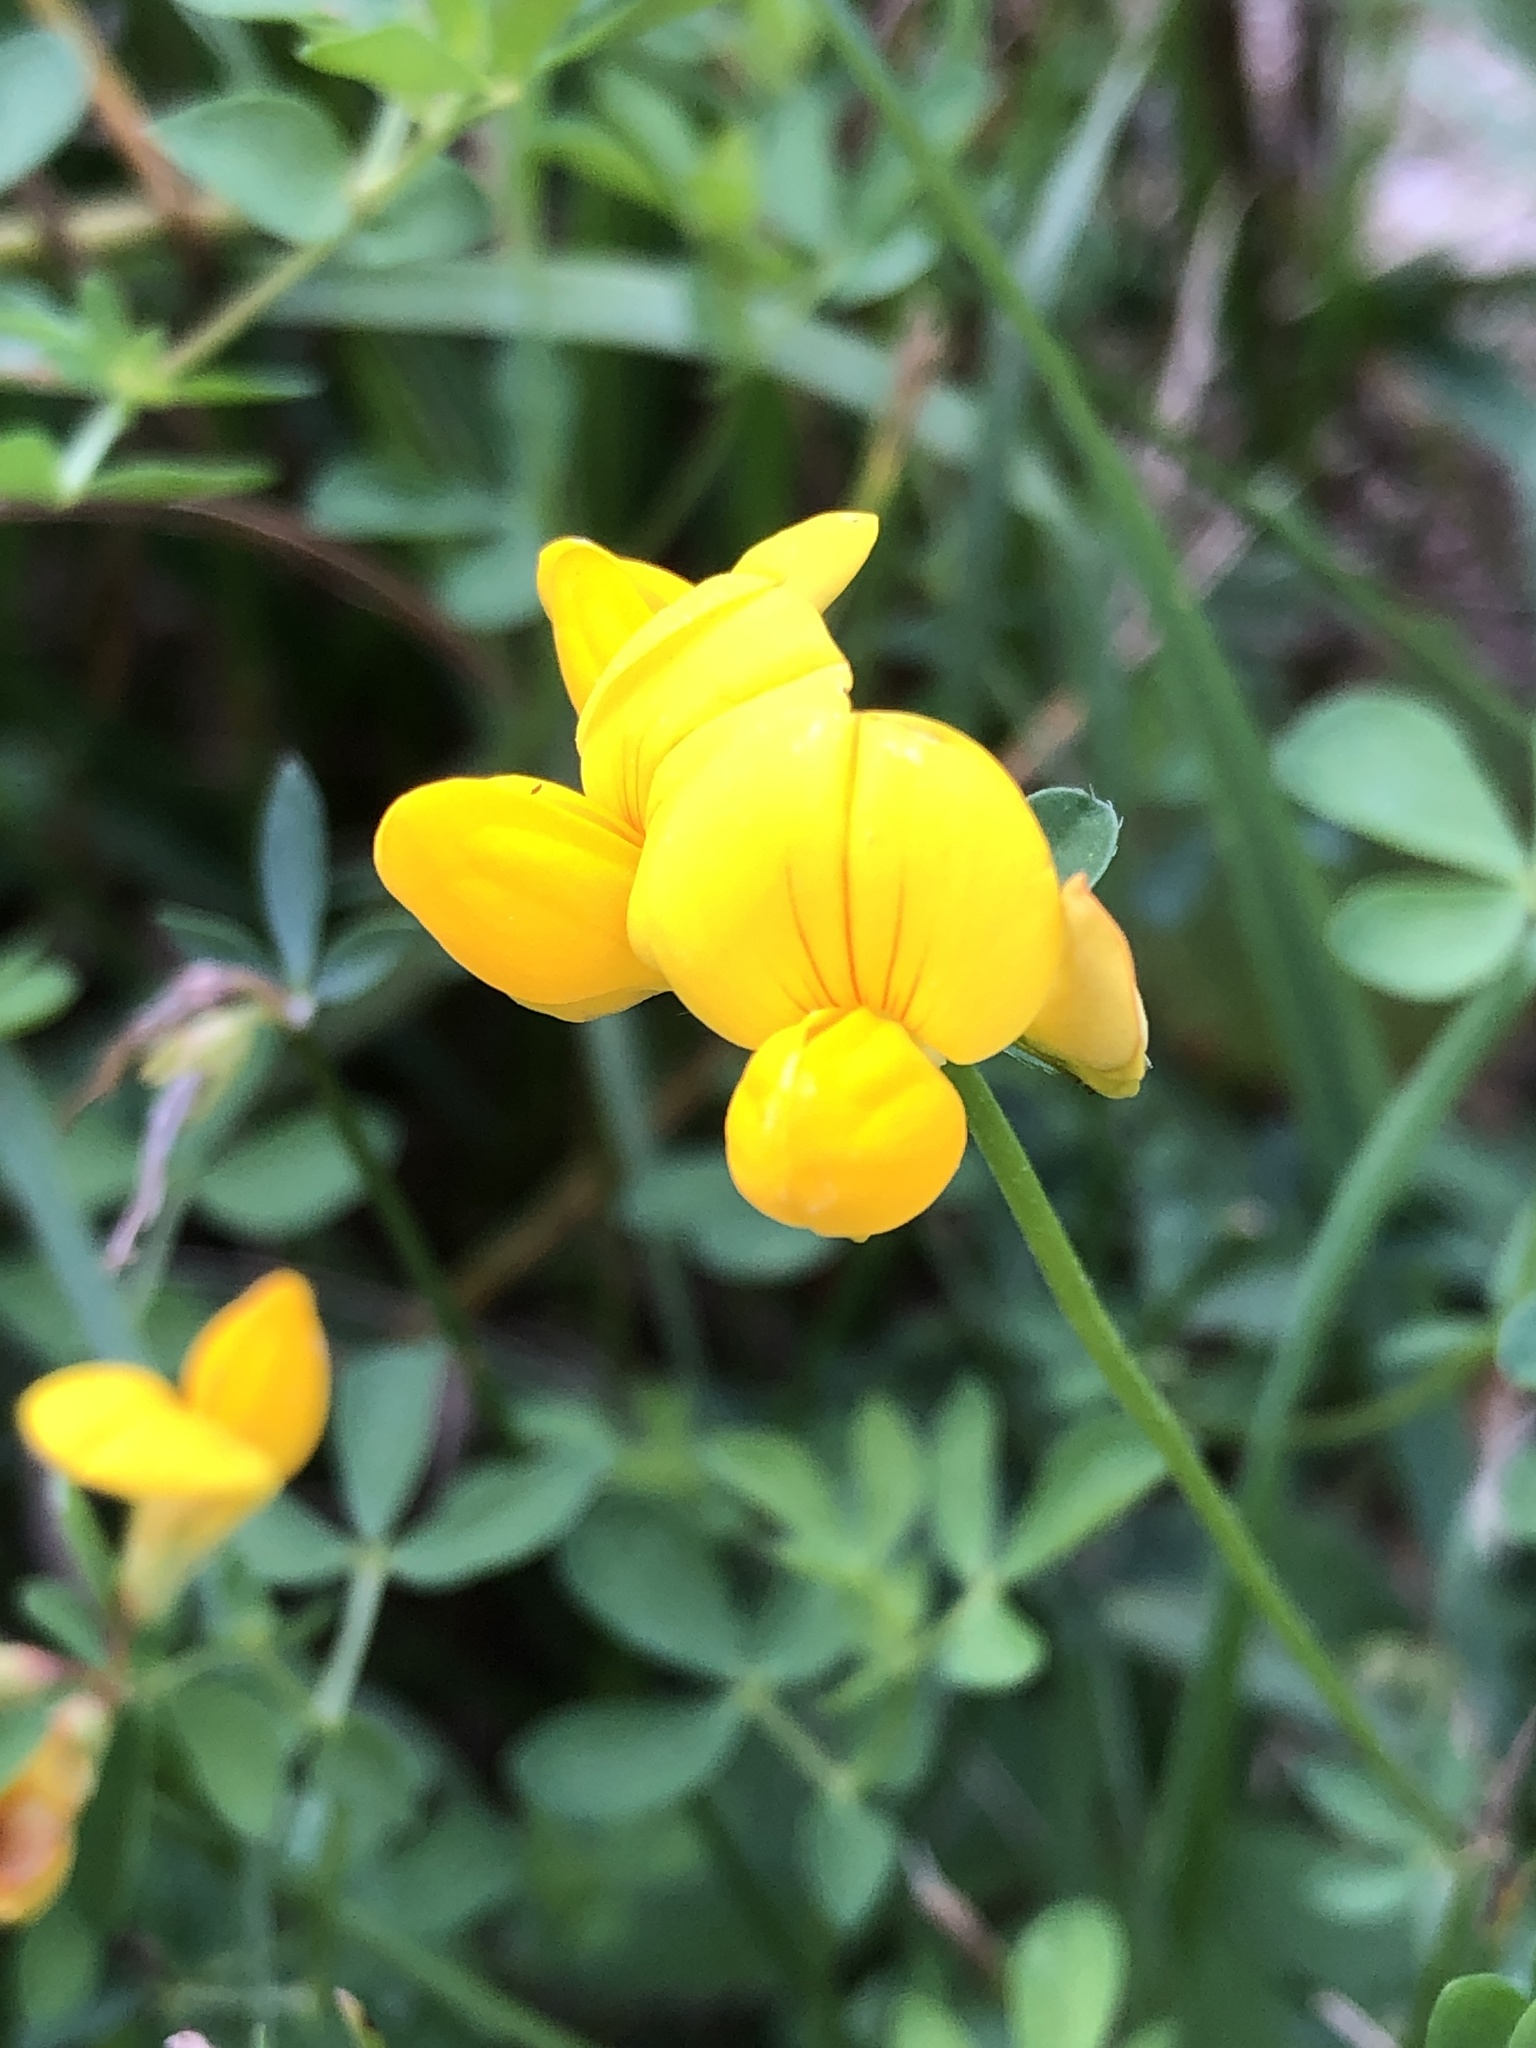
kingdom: Plantae
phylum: Tracheophyta
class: Magnoliopsida
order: Fabales
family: Fabaceae
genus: Lotus
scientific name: Lotus corniculatus
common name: Common bird's-foot-trefoil
